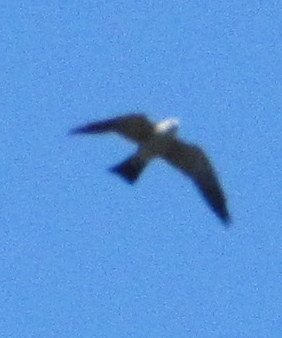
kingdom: Animalia
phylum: Chordata
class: Aves
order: Accipitriformes
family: Accipitridae
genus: Ictinia
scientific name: Ictinia mississippiensis
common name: Mississippi kite
